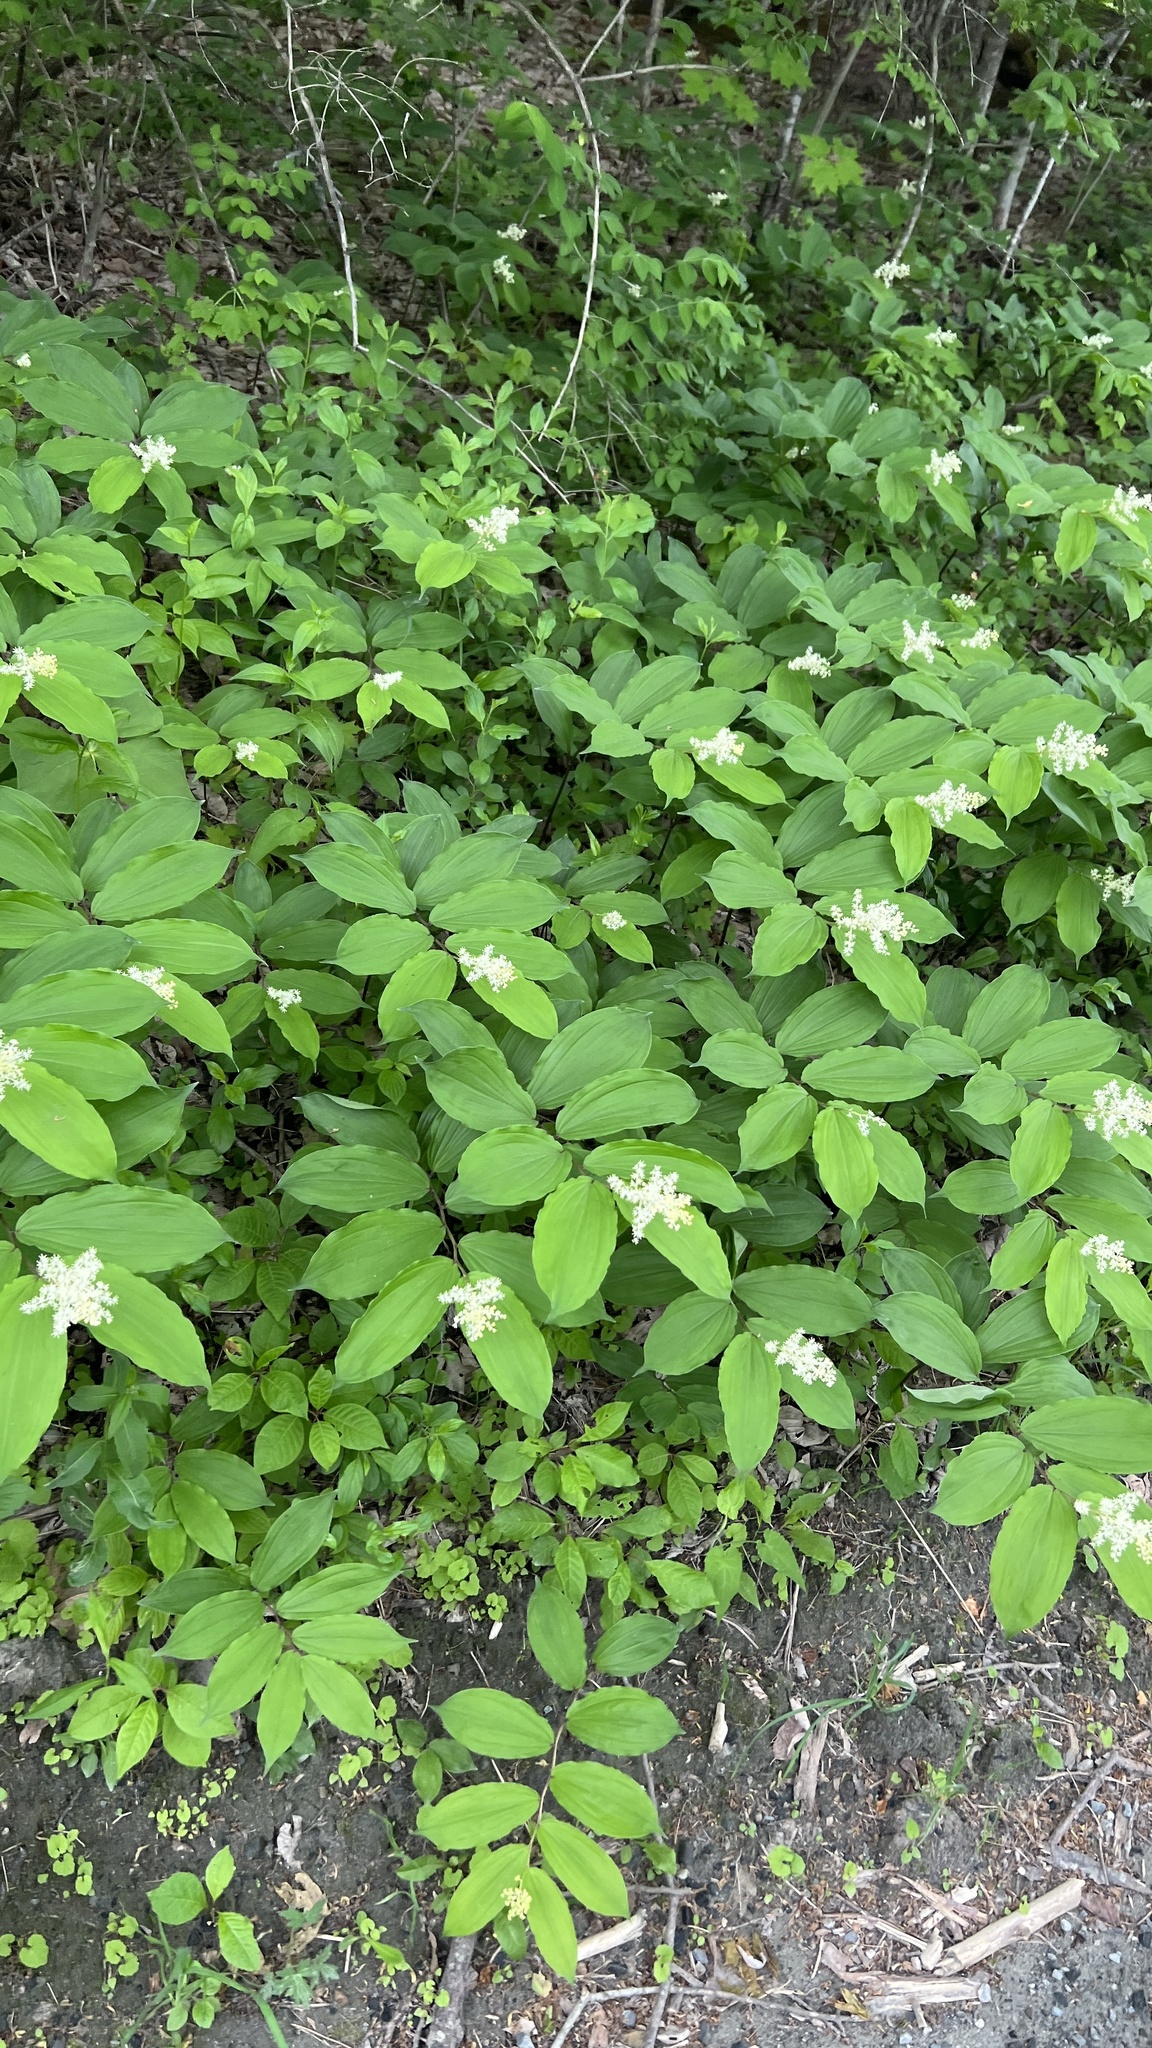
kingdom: Plantae
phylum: Tracheophyta
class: Liliopsida
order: Asparagales
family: Asparagaceae
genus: Maianthemum
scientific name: Maianthemum racemosum
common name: False spikenard
